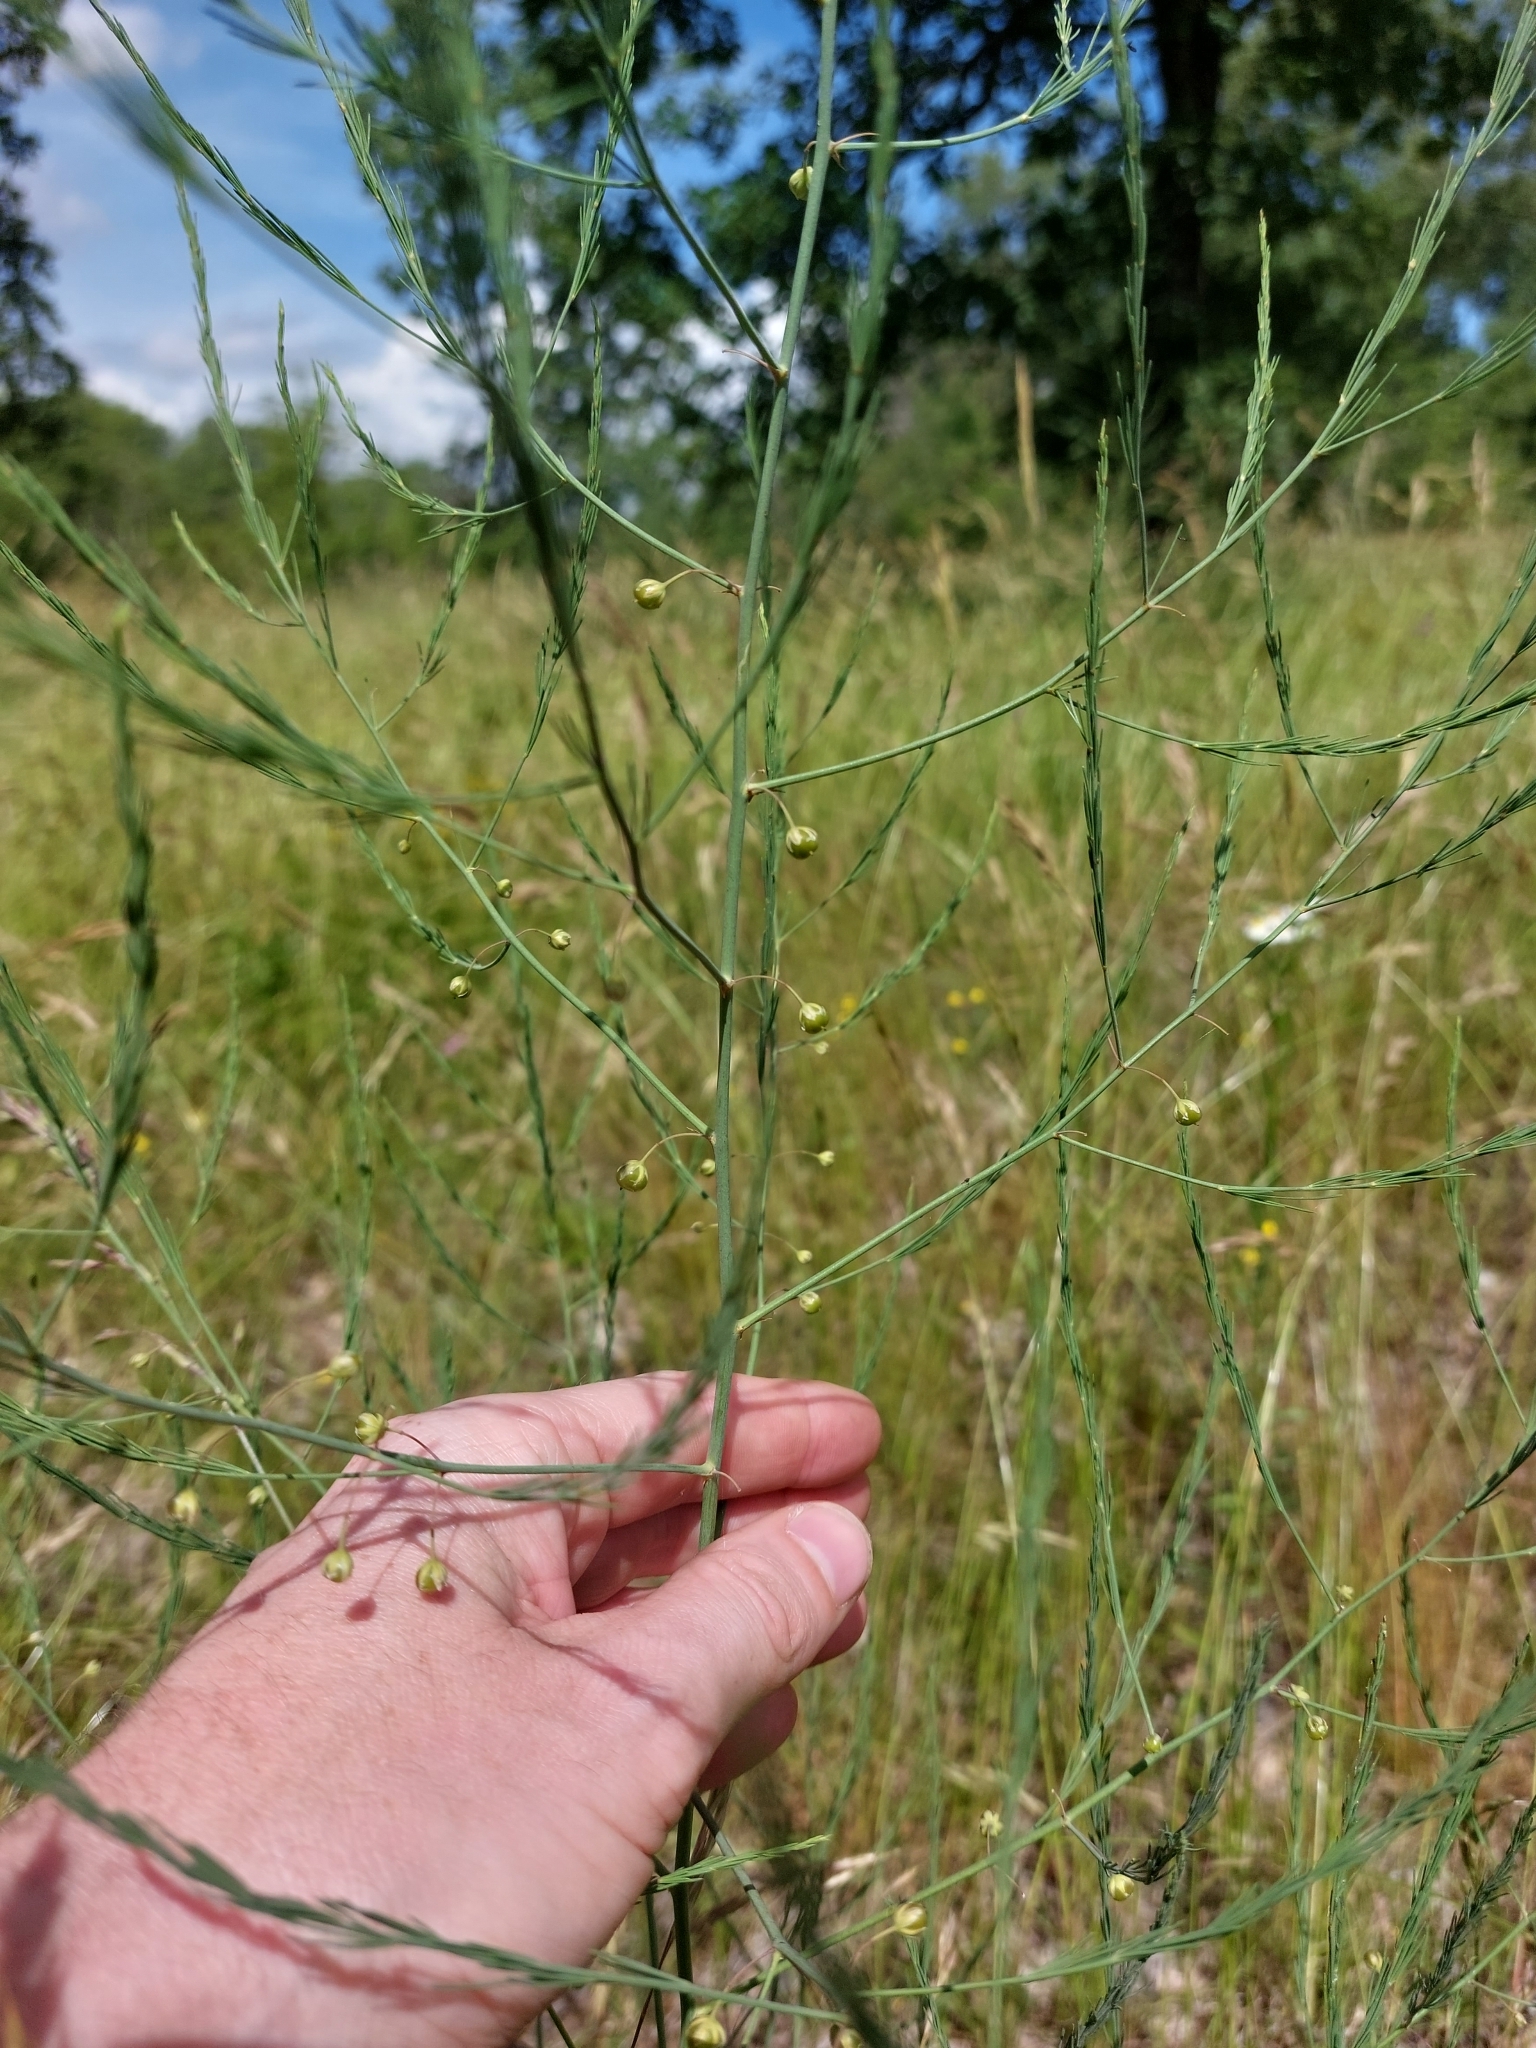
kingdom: Plantae
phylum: Tracheophyta
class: Liliopsida
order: Asparagales
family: Asparagaceae
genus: Asparagus
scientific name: Asparagus officinalis
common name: Garden asparagus
